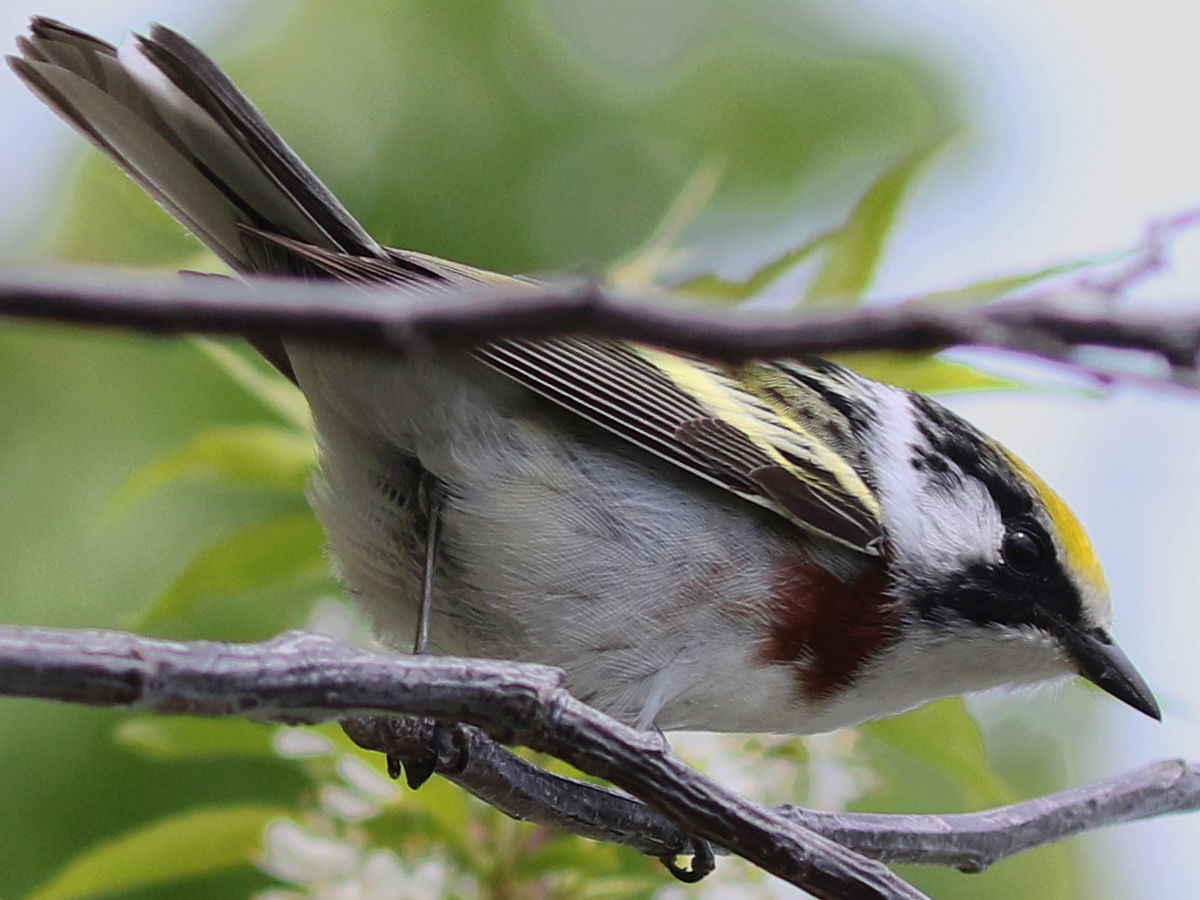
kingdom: Animalia
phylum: Chordata
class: Aves
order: Passeriformes
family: Parulidae
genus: Setophaga
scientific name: Setophaga pensylvanica
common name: Chestnut-sided warbler
